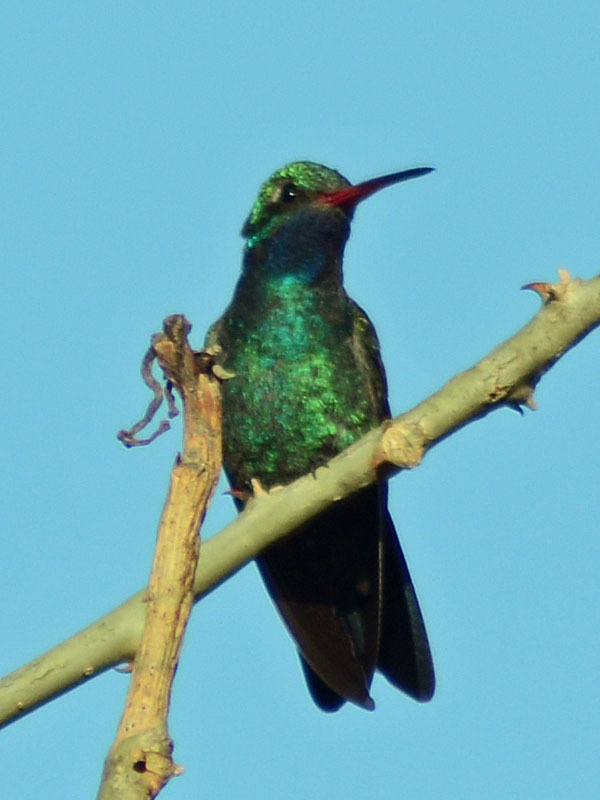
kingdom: Animalia
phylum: Chordata
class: Aves
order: Apodiformes
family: Trochilidae
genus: Cynanthus
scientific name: Cynanthus latirostris
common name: Broad-billed hummingbird
